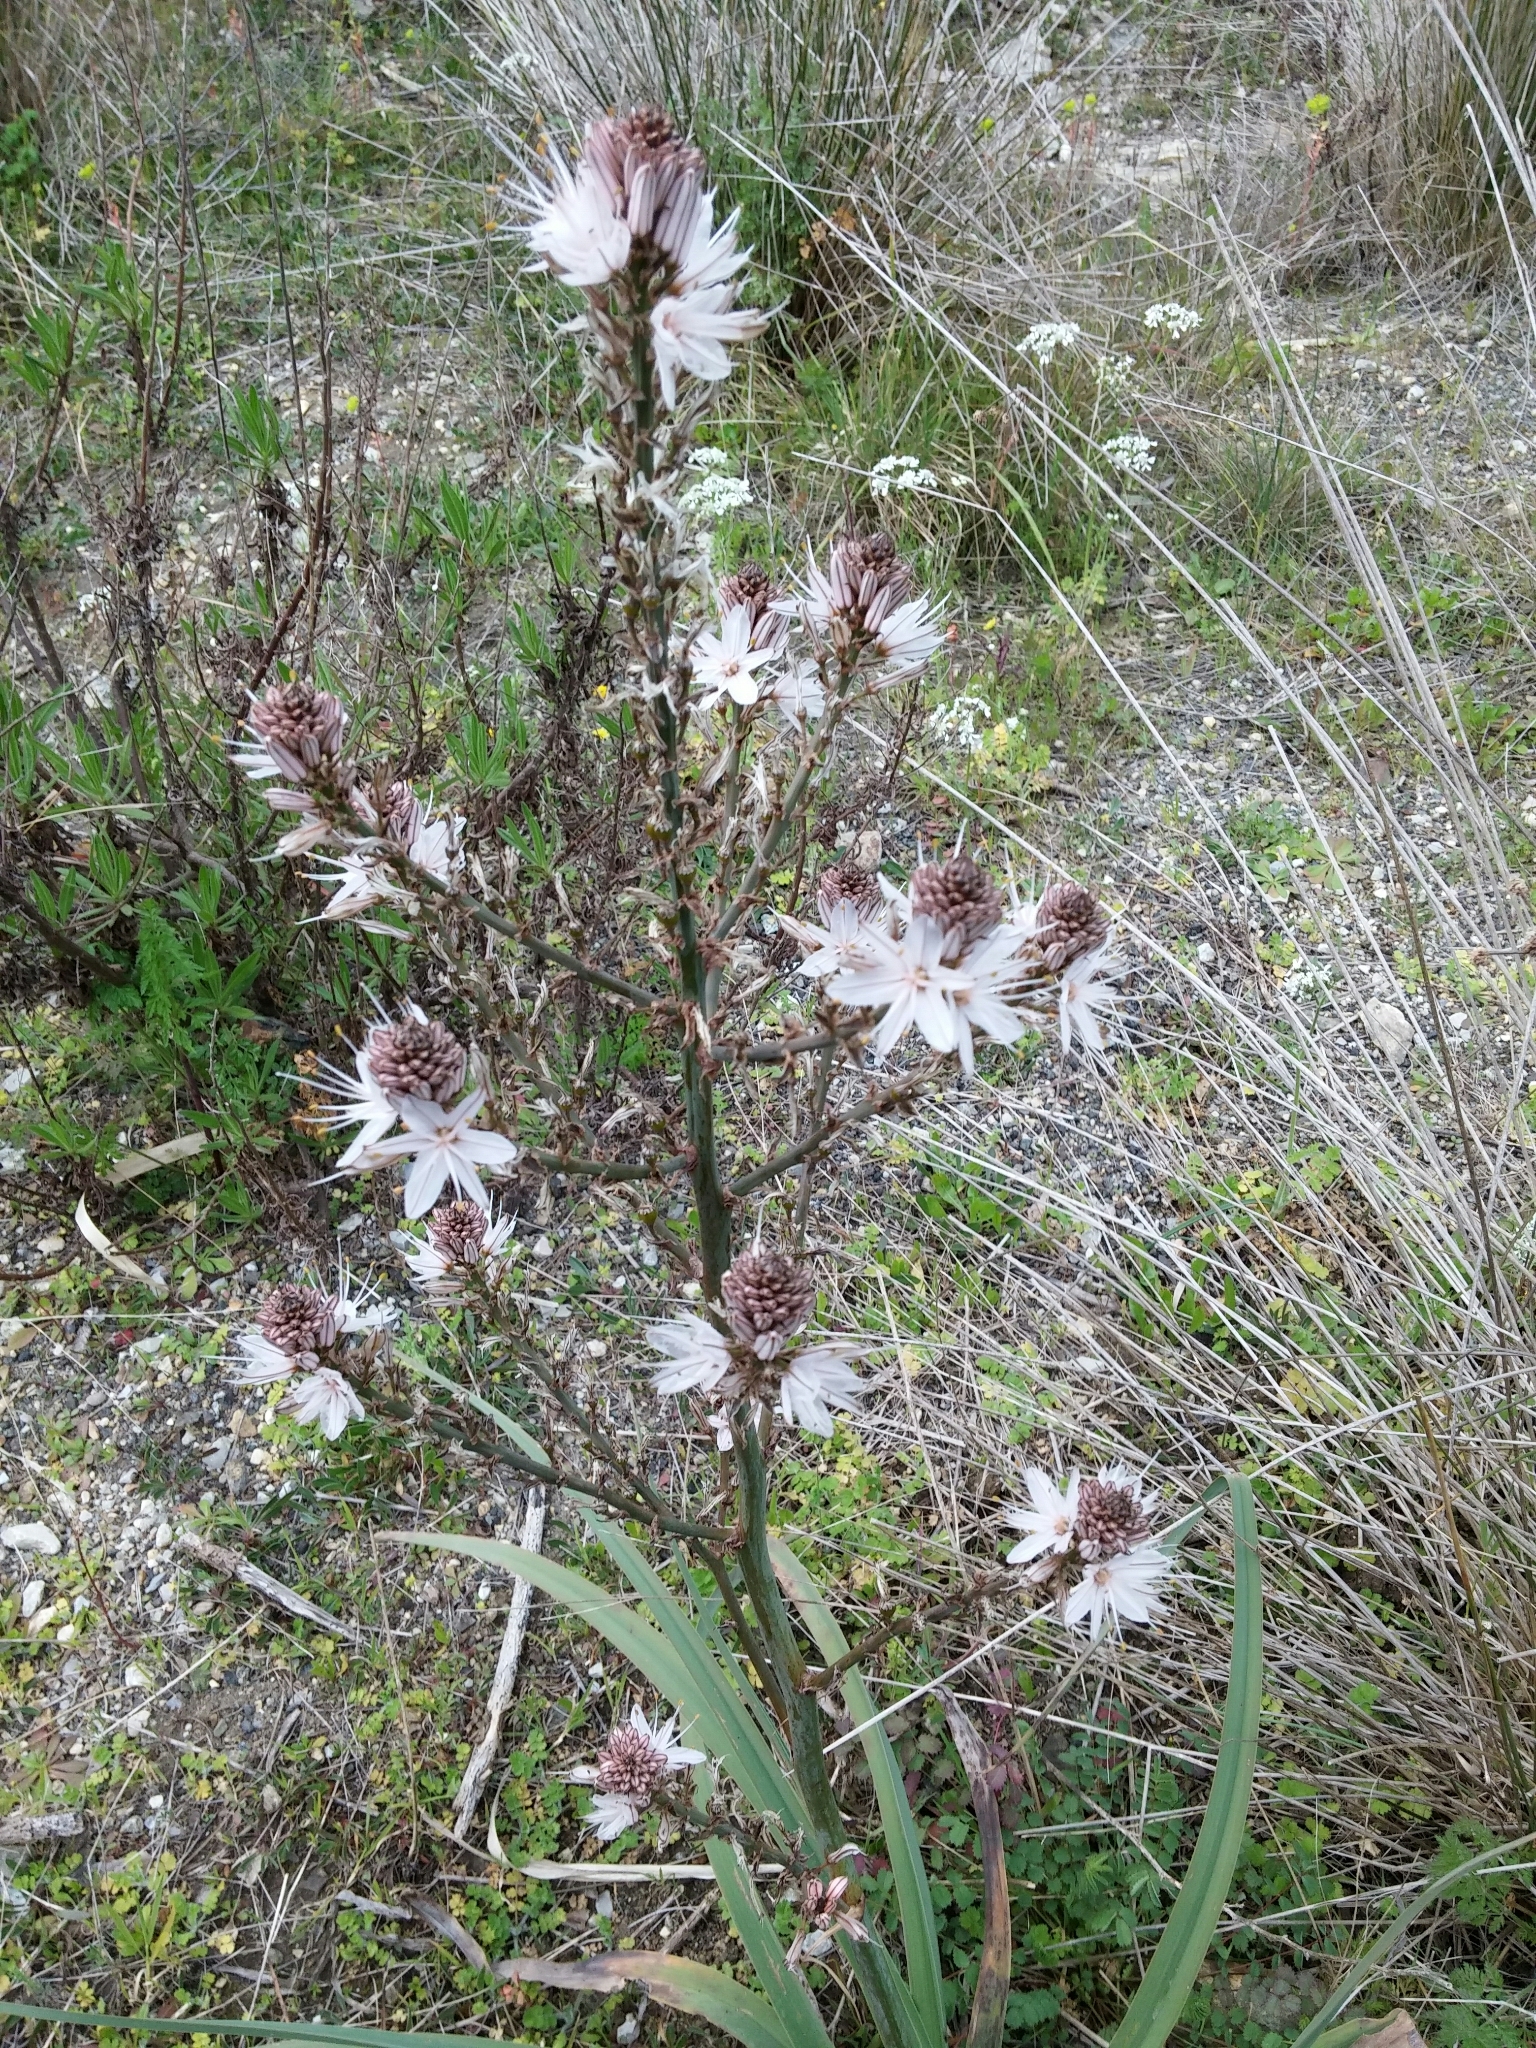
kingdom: Plantae
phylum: Tracheophyta
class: Liliopsida
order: Asparagales
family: Asphodelaceae
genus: Asphodelus
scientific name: Asphodelus ramosus
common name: Silverrod
